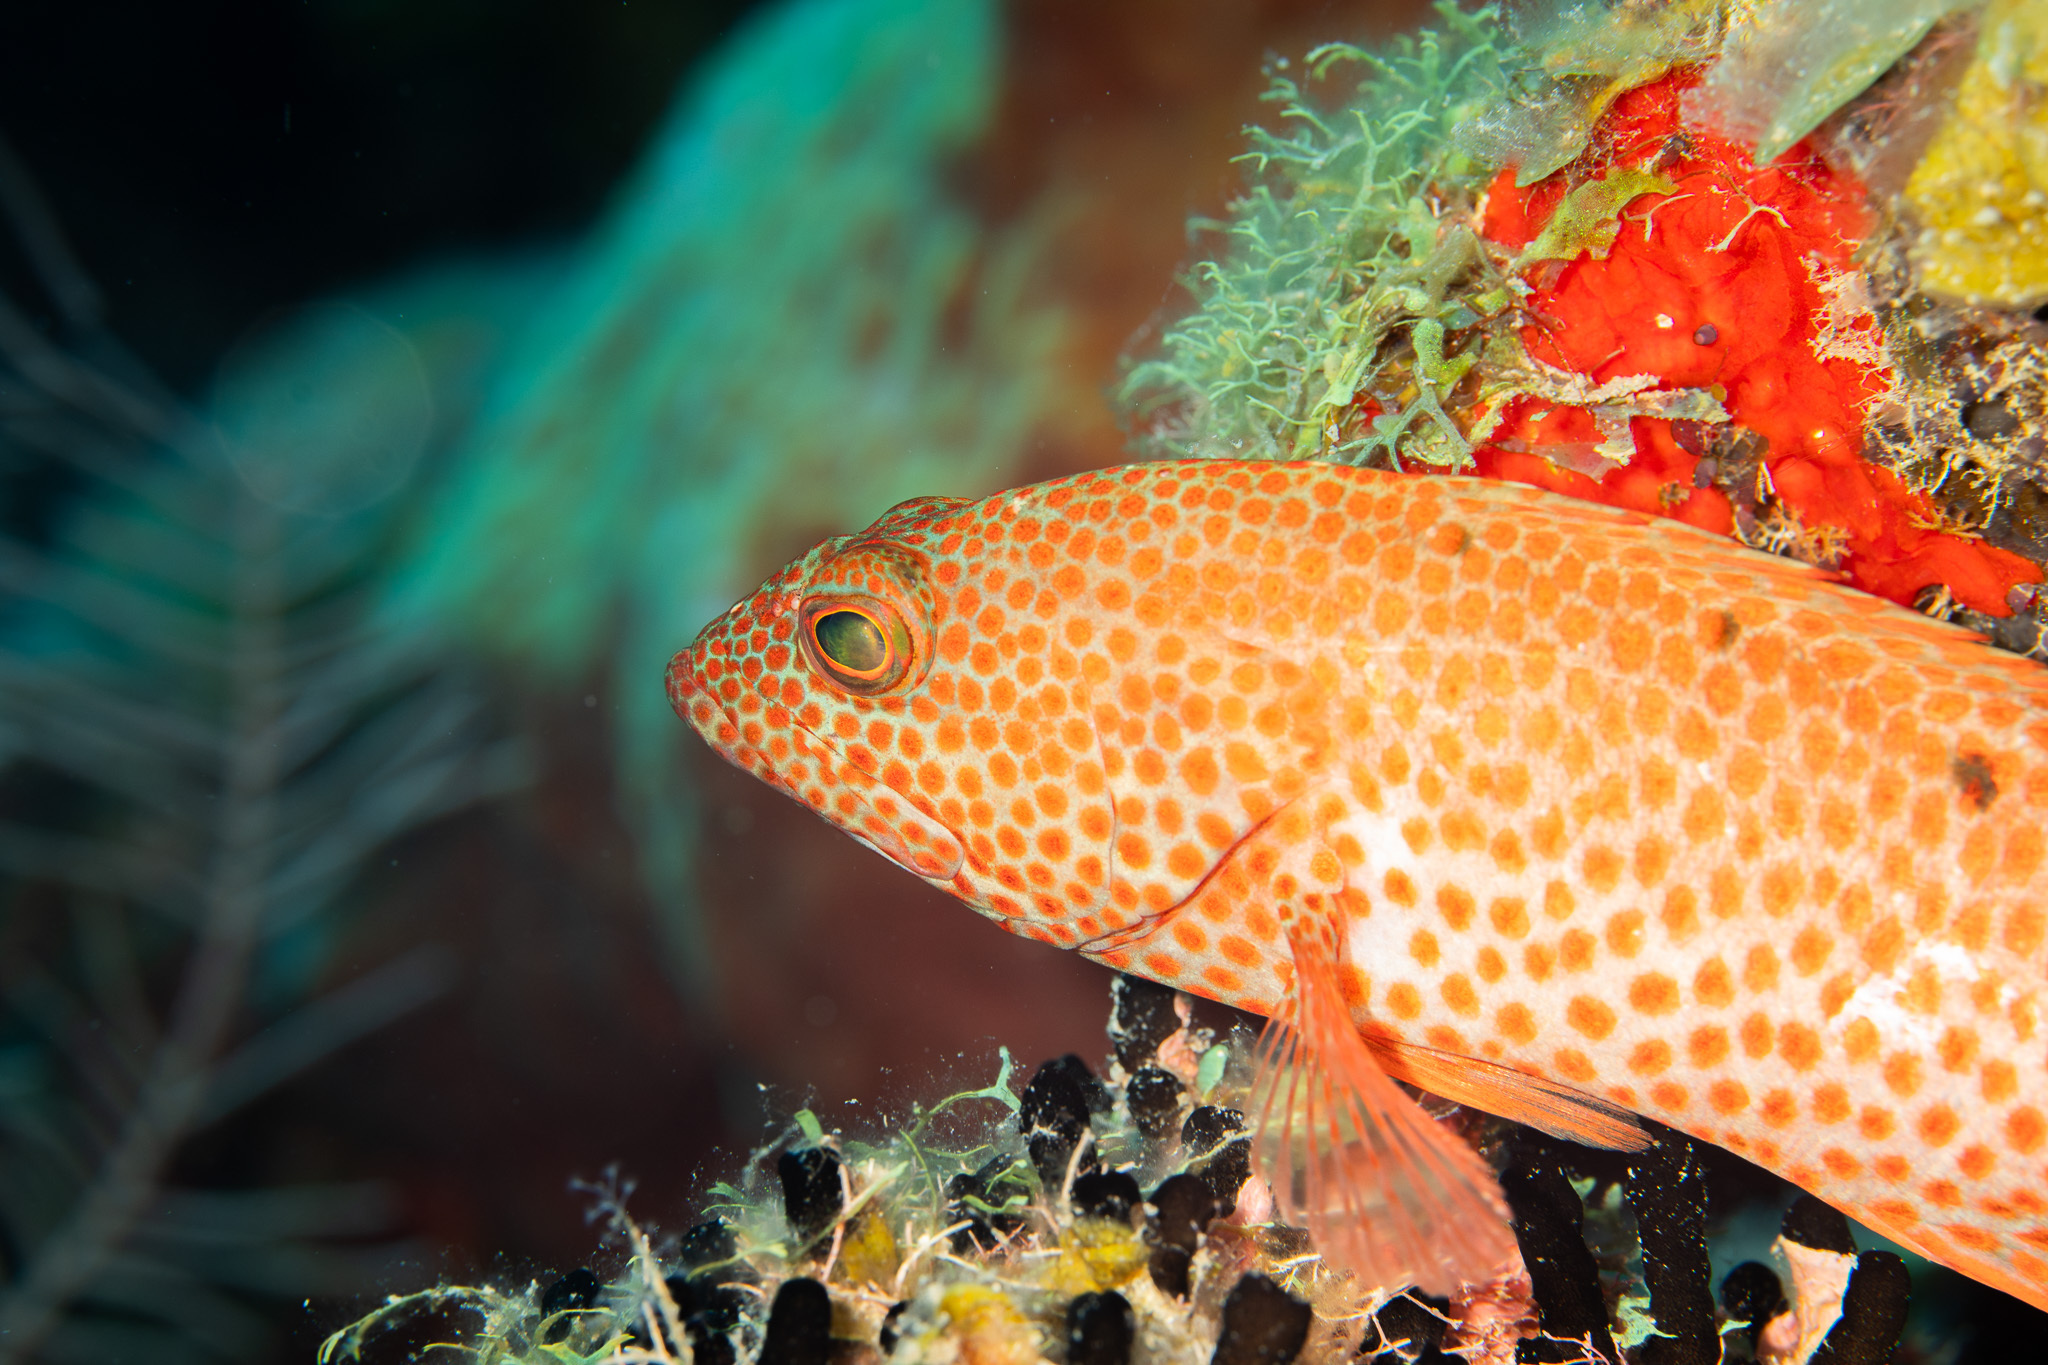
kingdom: Animalia
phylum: Chordata
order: Perciformes
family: Serranidae
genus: Cephalopholis
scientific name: Cephalopholis cruentata
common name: Graysby
